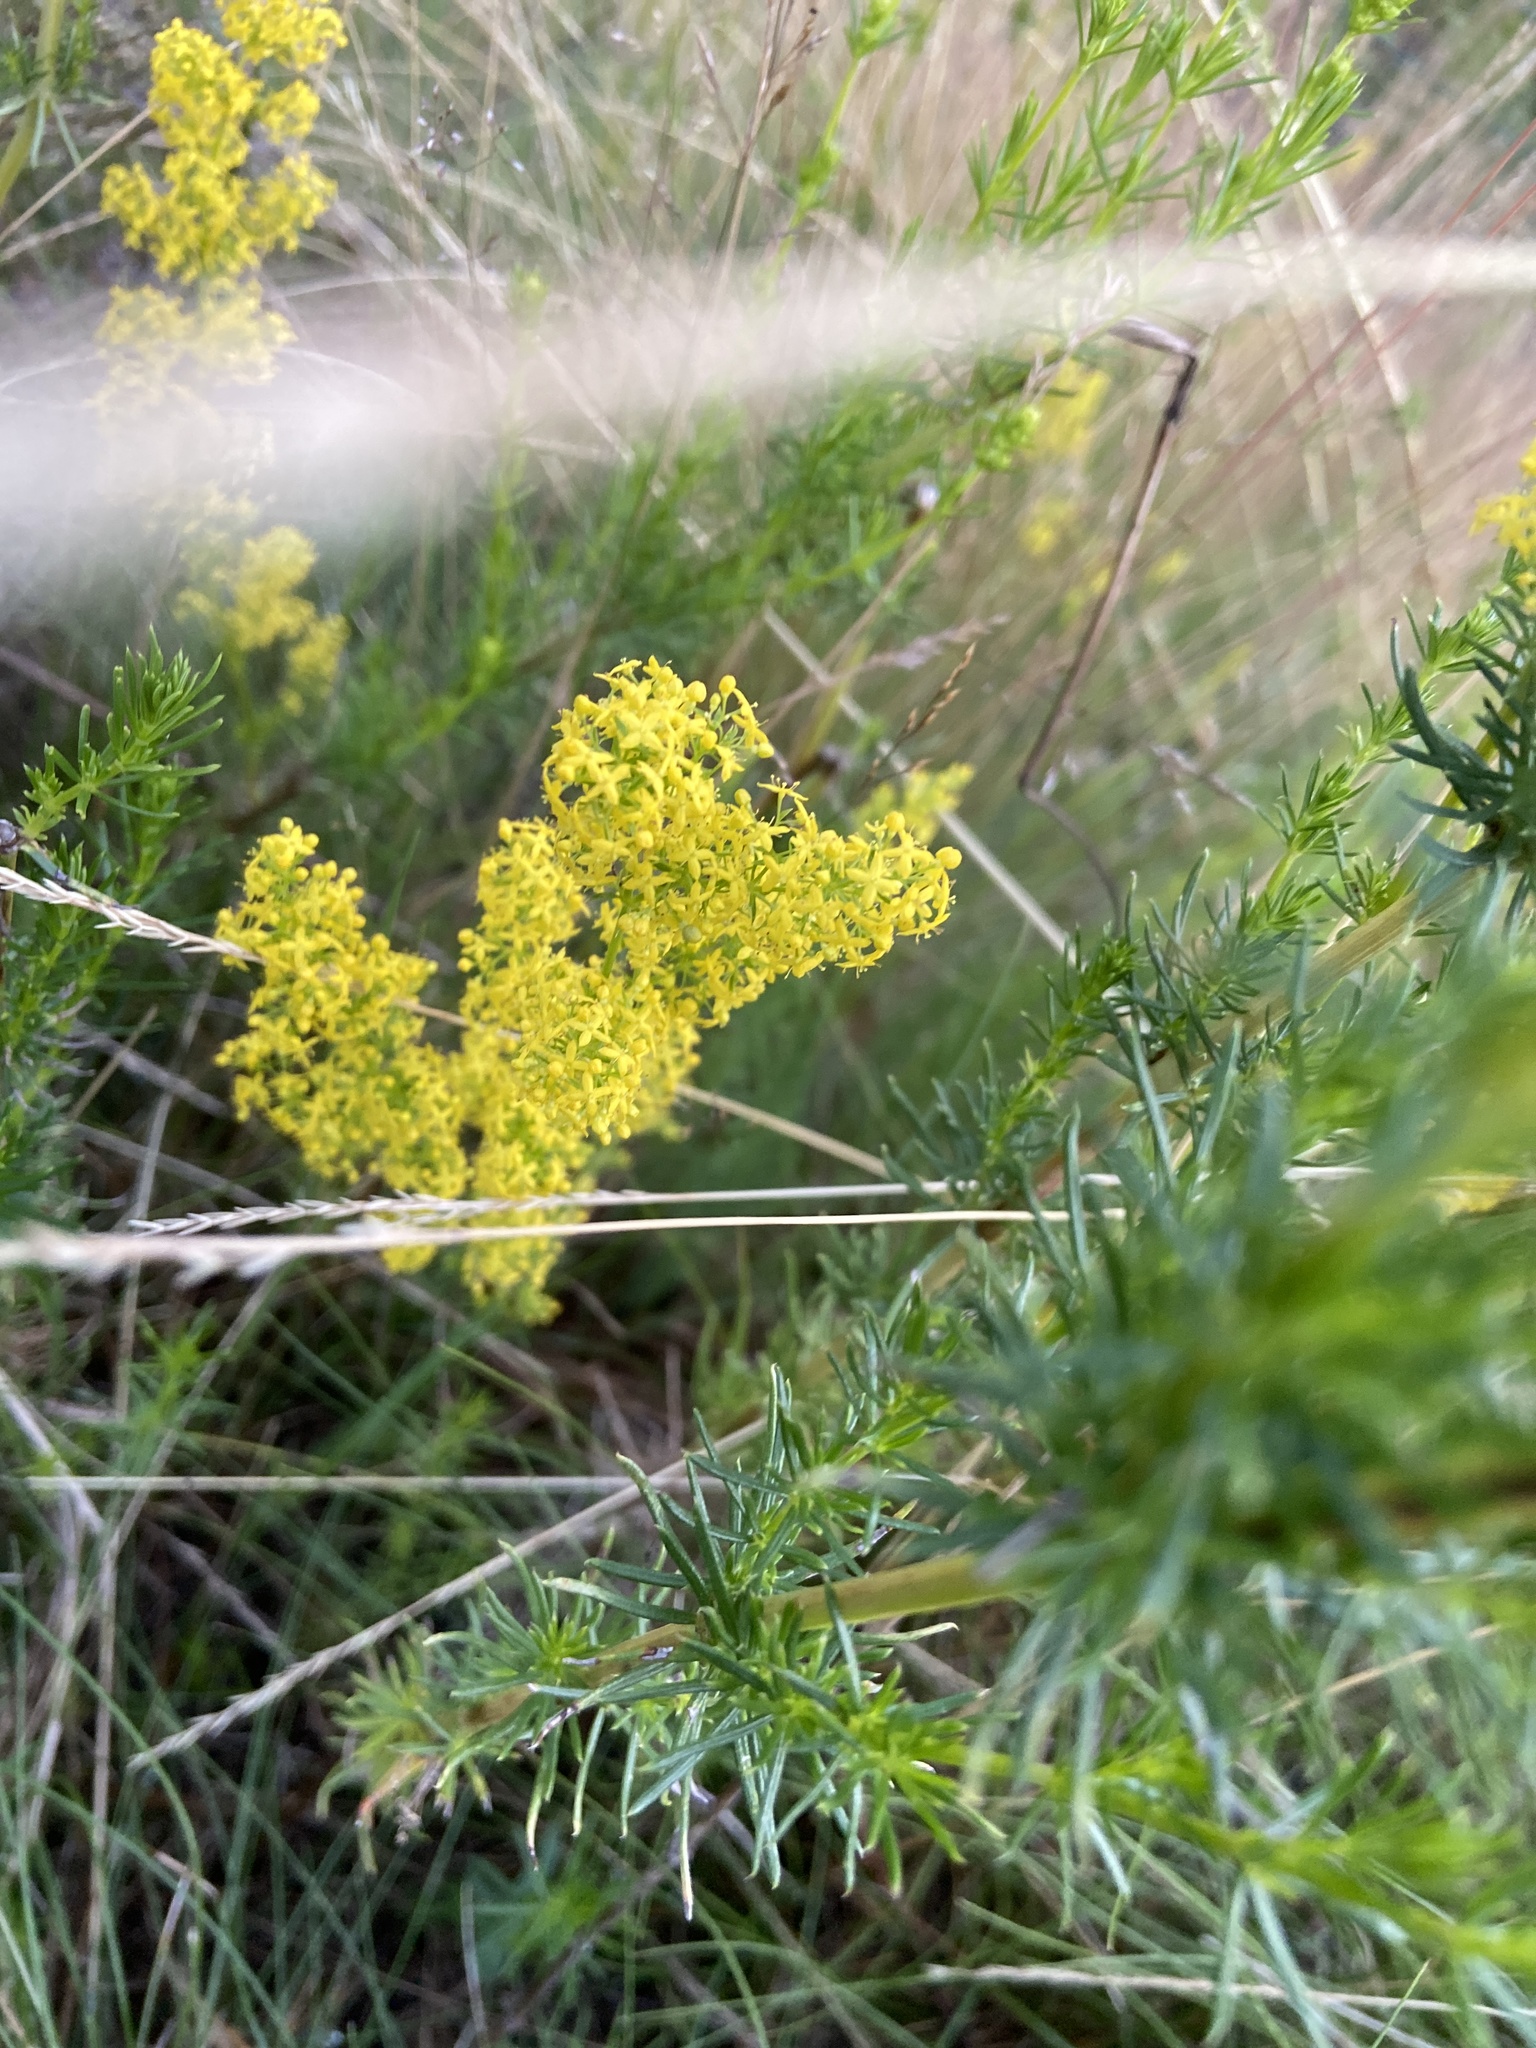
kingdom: Plantae
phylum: Tracheophyta
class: Magnoliopsida
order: Gentianales
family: Rubiaceae
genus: Galium
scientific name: Galium verum
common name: Lady's bedstraw
